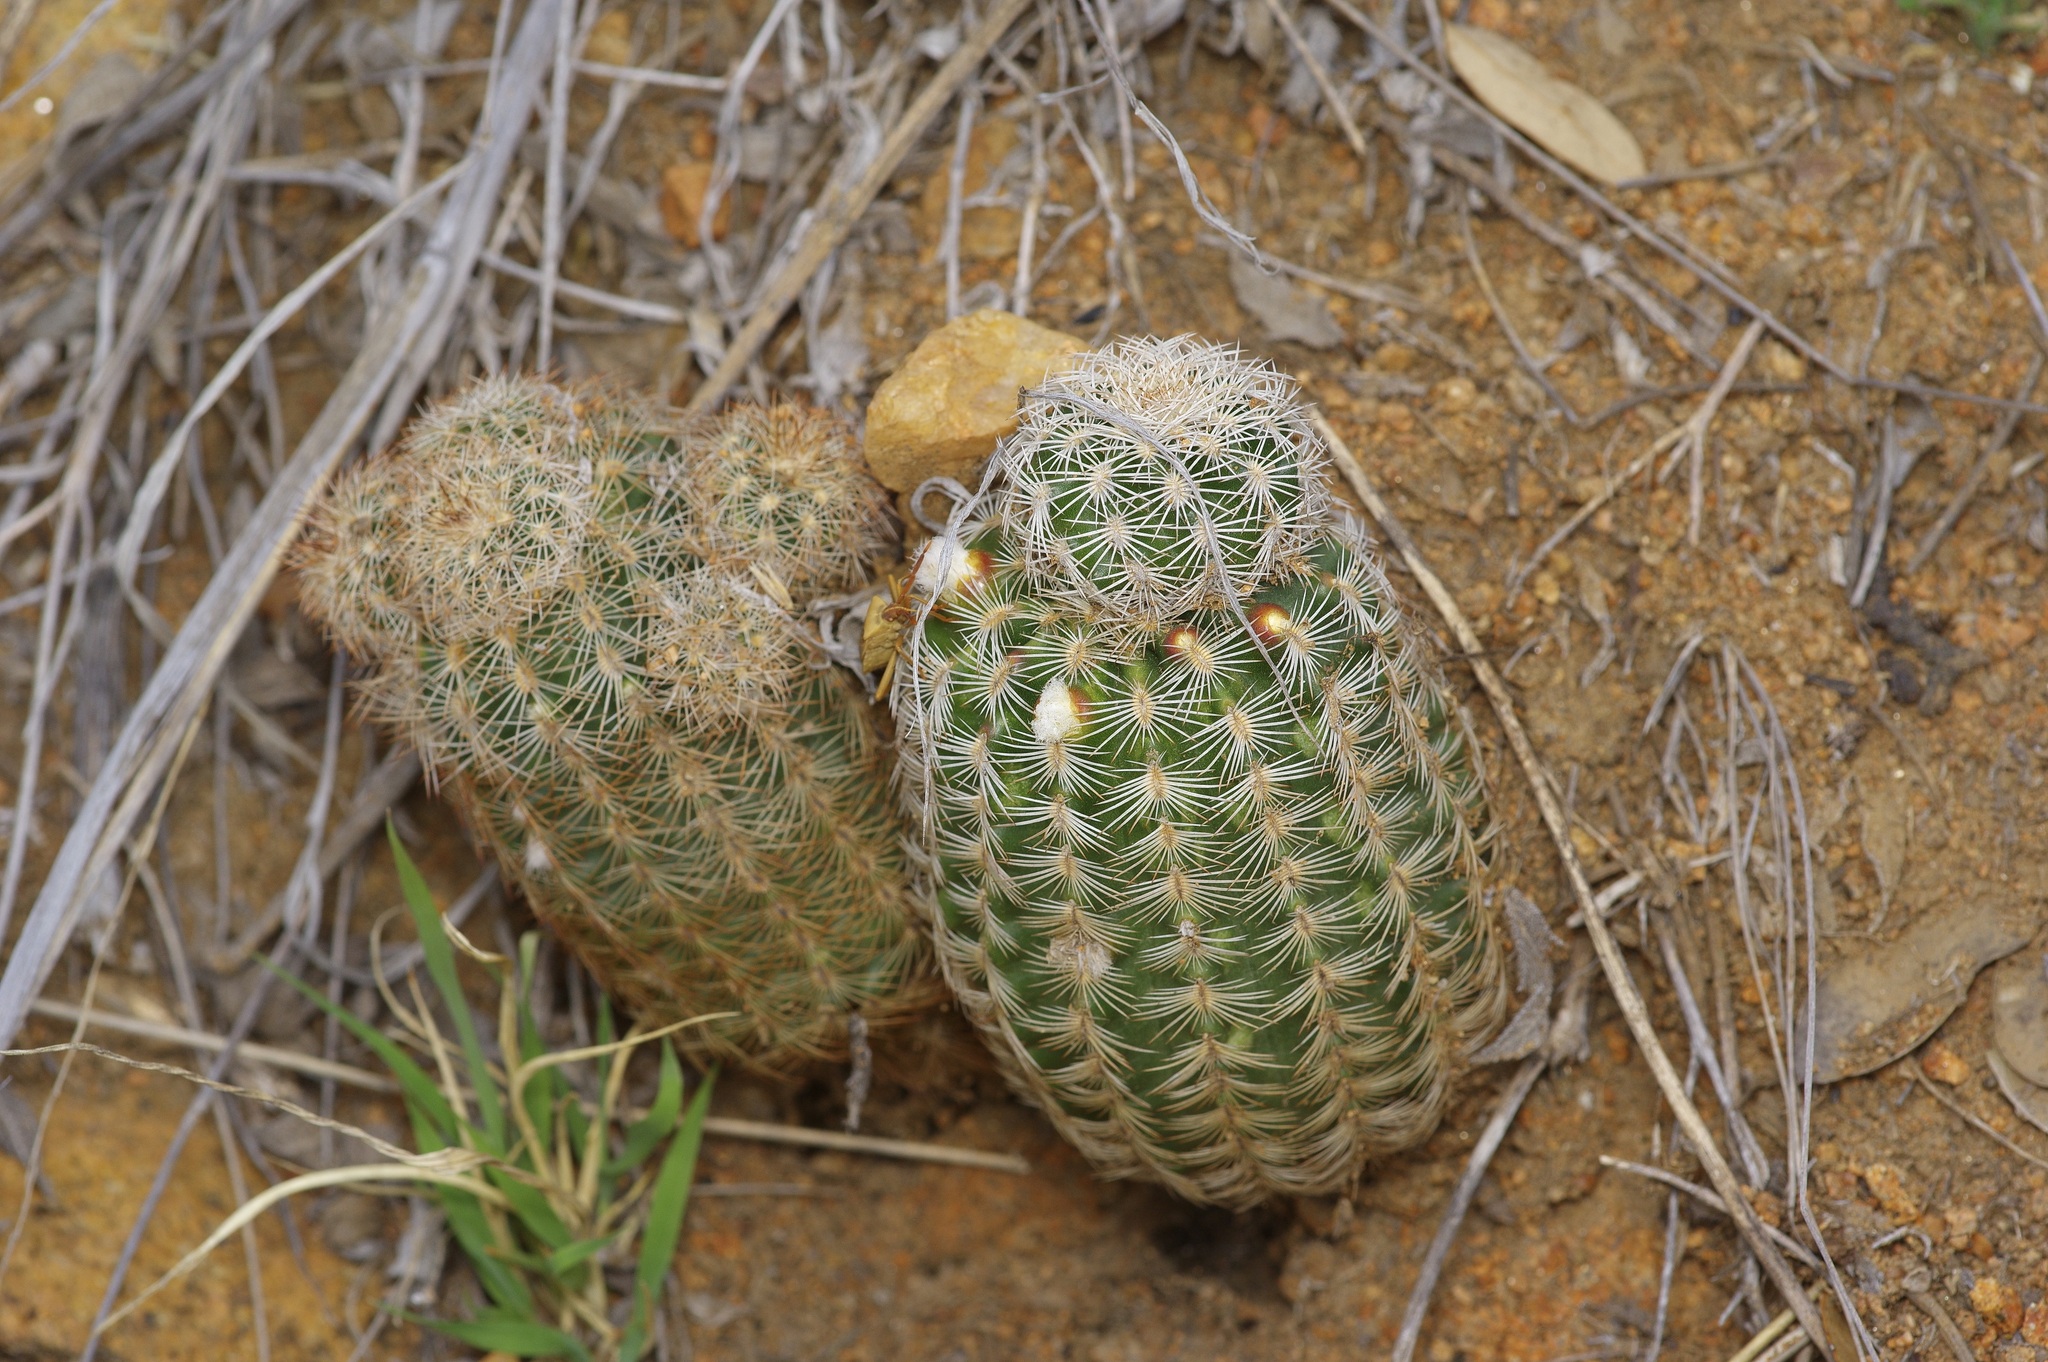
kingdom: Plantae
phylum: Tracheophyta
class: Magnoliopsida
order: Caryophyllales
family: Cactaceae
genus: Echinocereus
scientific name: Echinocereus reichenbachii
